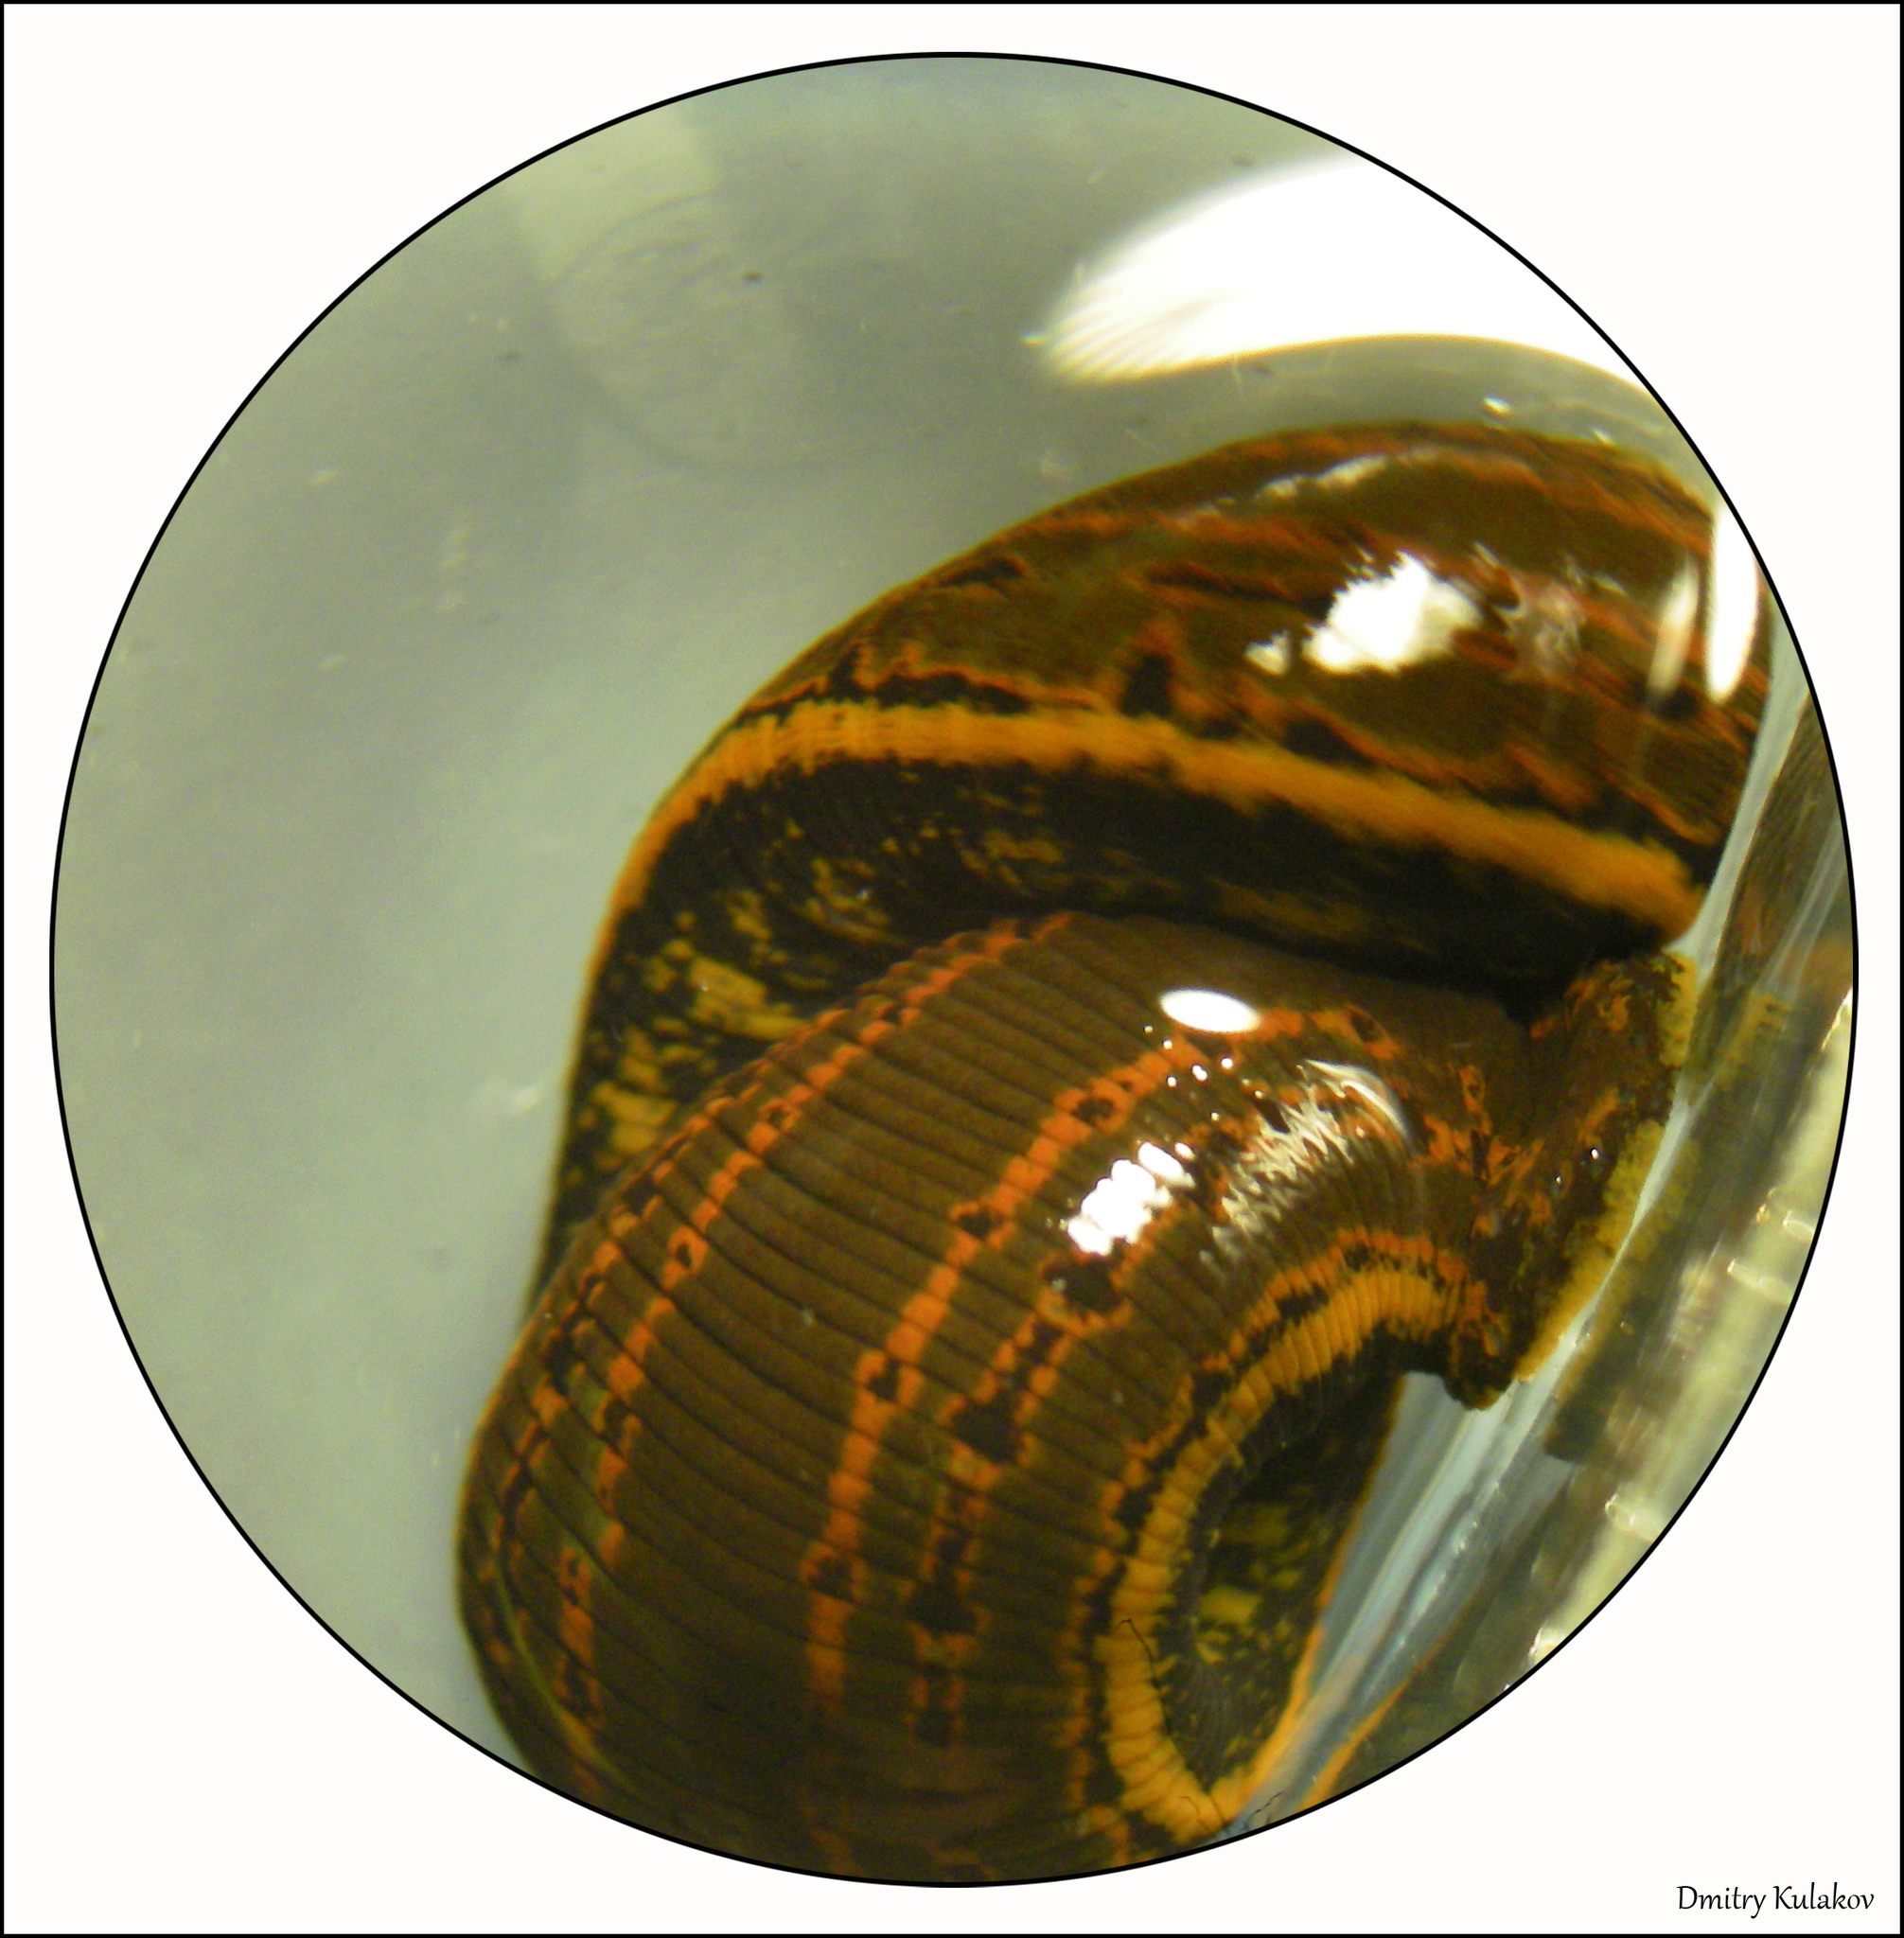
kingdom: Animalia
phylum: Annelida
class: Clitellata
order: Arhynchobdellida
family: Hirudinidae
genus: Hirudo
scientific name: Hirudo medicinalis
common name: Medicinal leech
